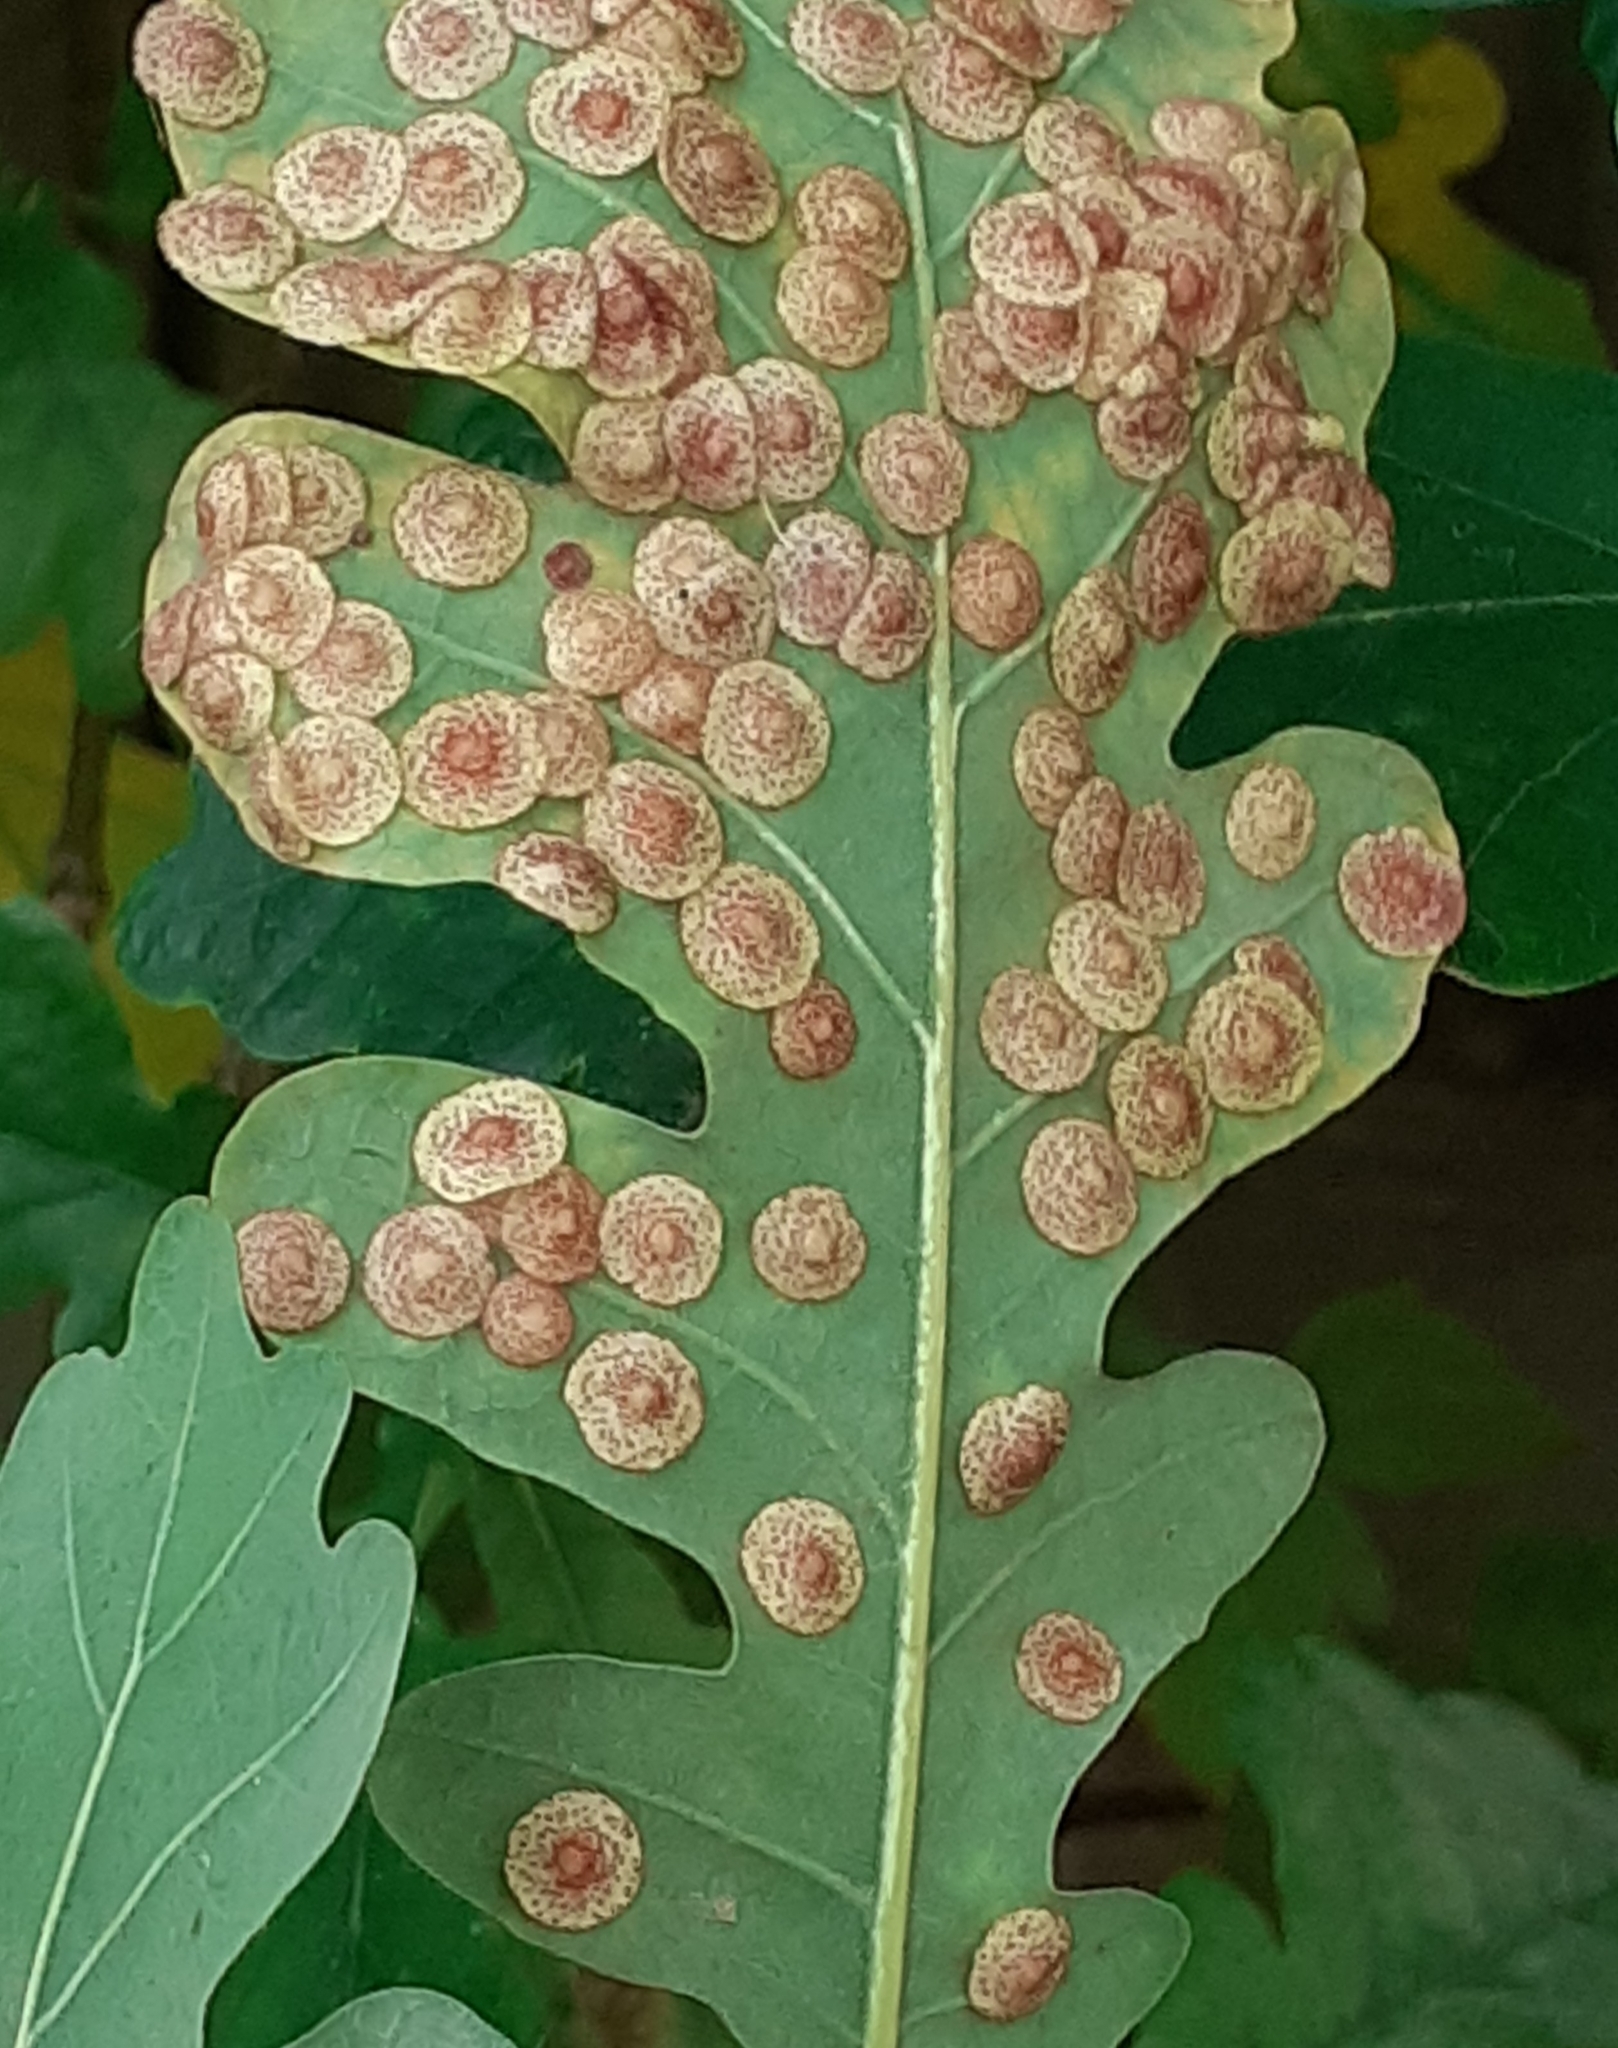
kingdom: Animalia
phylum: Arthropoda
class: Insecta
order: Hymenoptera
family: Cynipidae
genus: Neuroterus
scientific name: Neuroterus quercusbaccarum
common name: Common spangle gall
